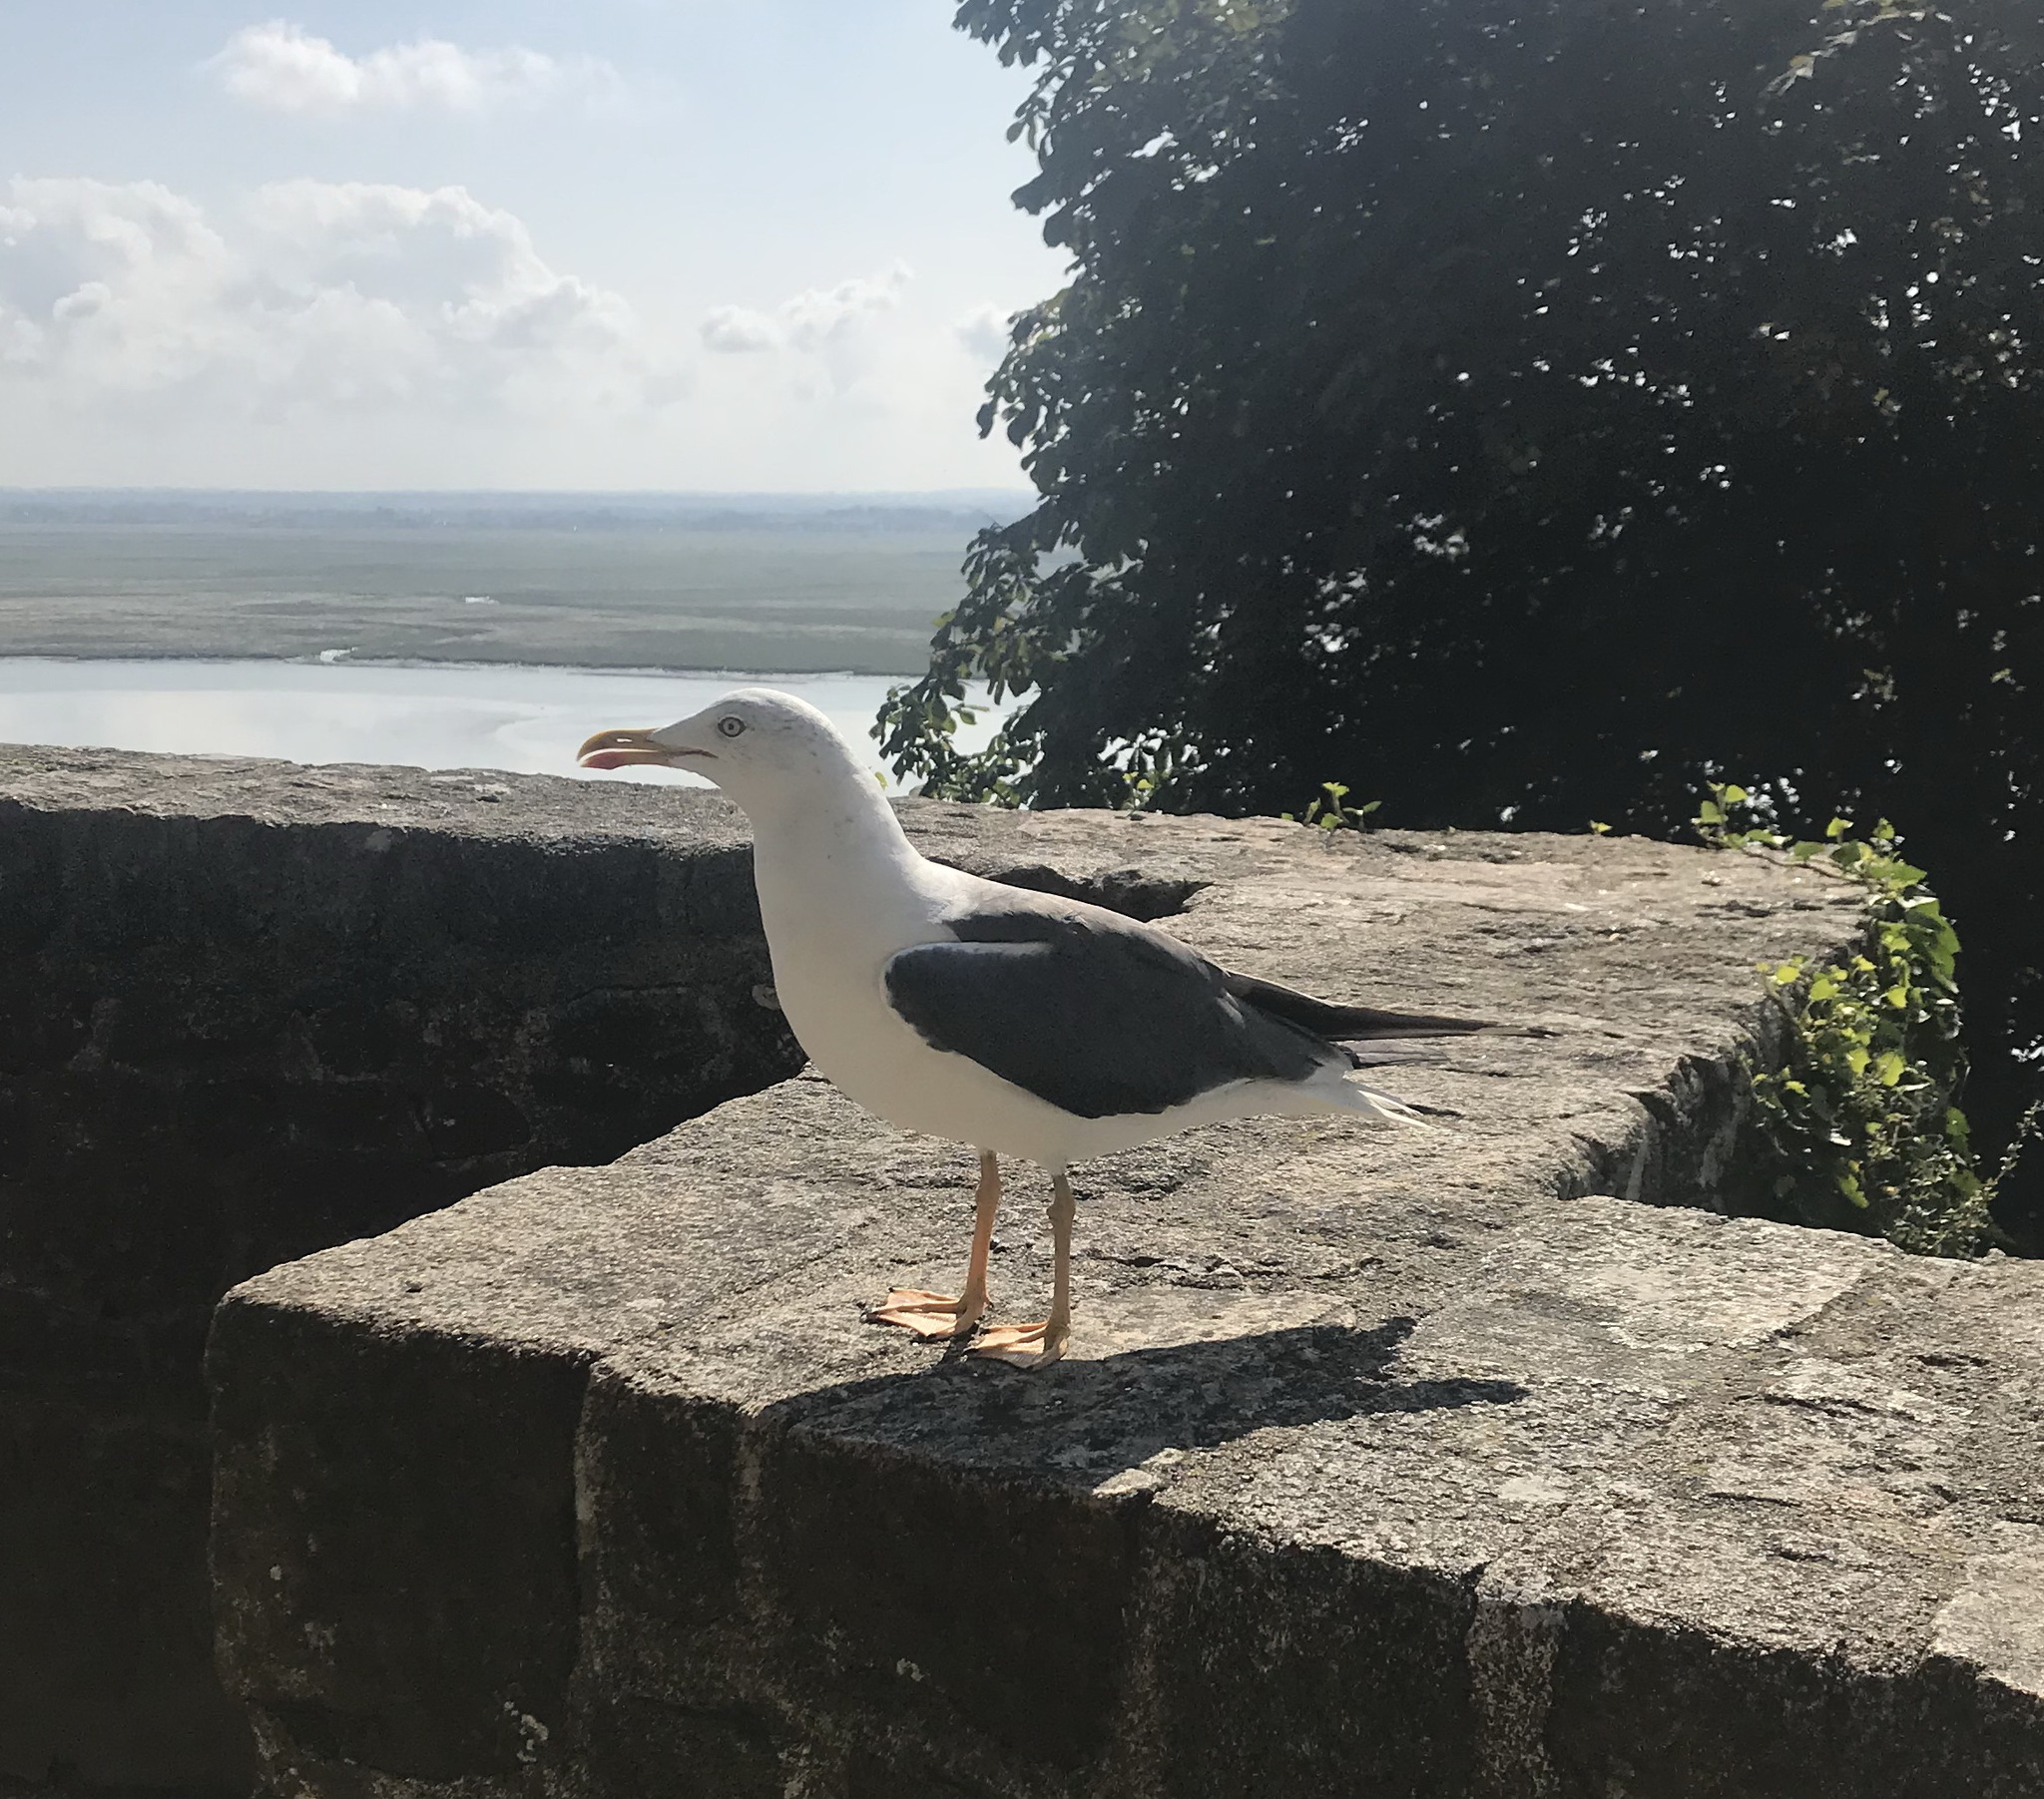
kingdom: Animalia
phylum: Chordata
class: Aves
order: Charadriiformes
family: Laridae
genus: Larus
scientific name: Larus fuscus
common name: Lesser black-backed gull
